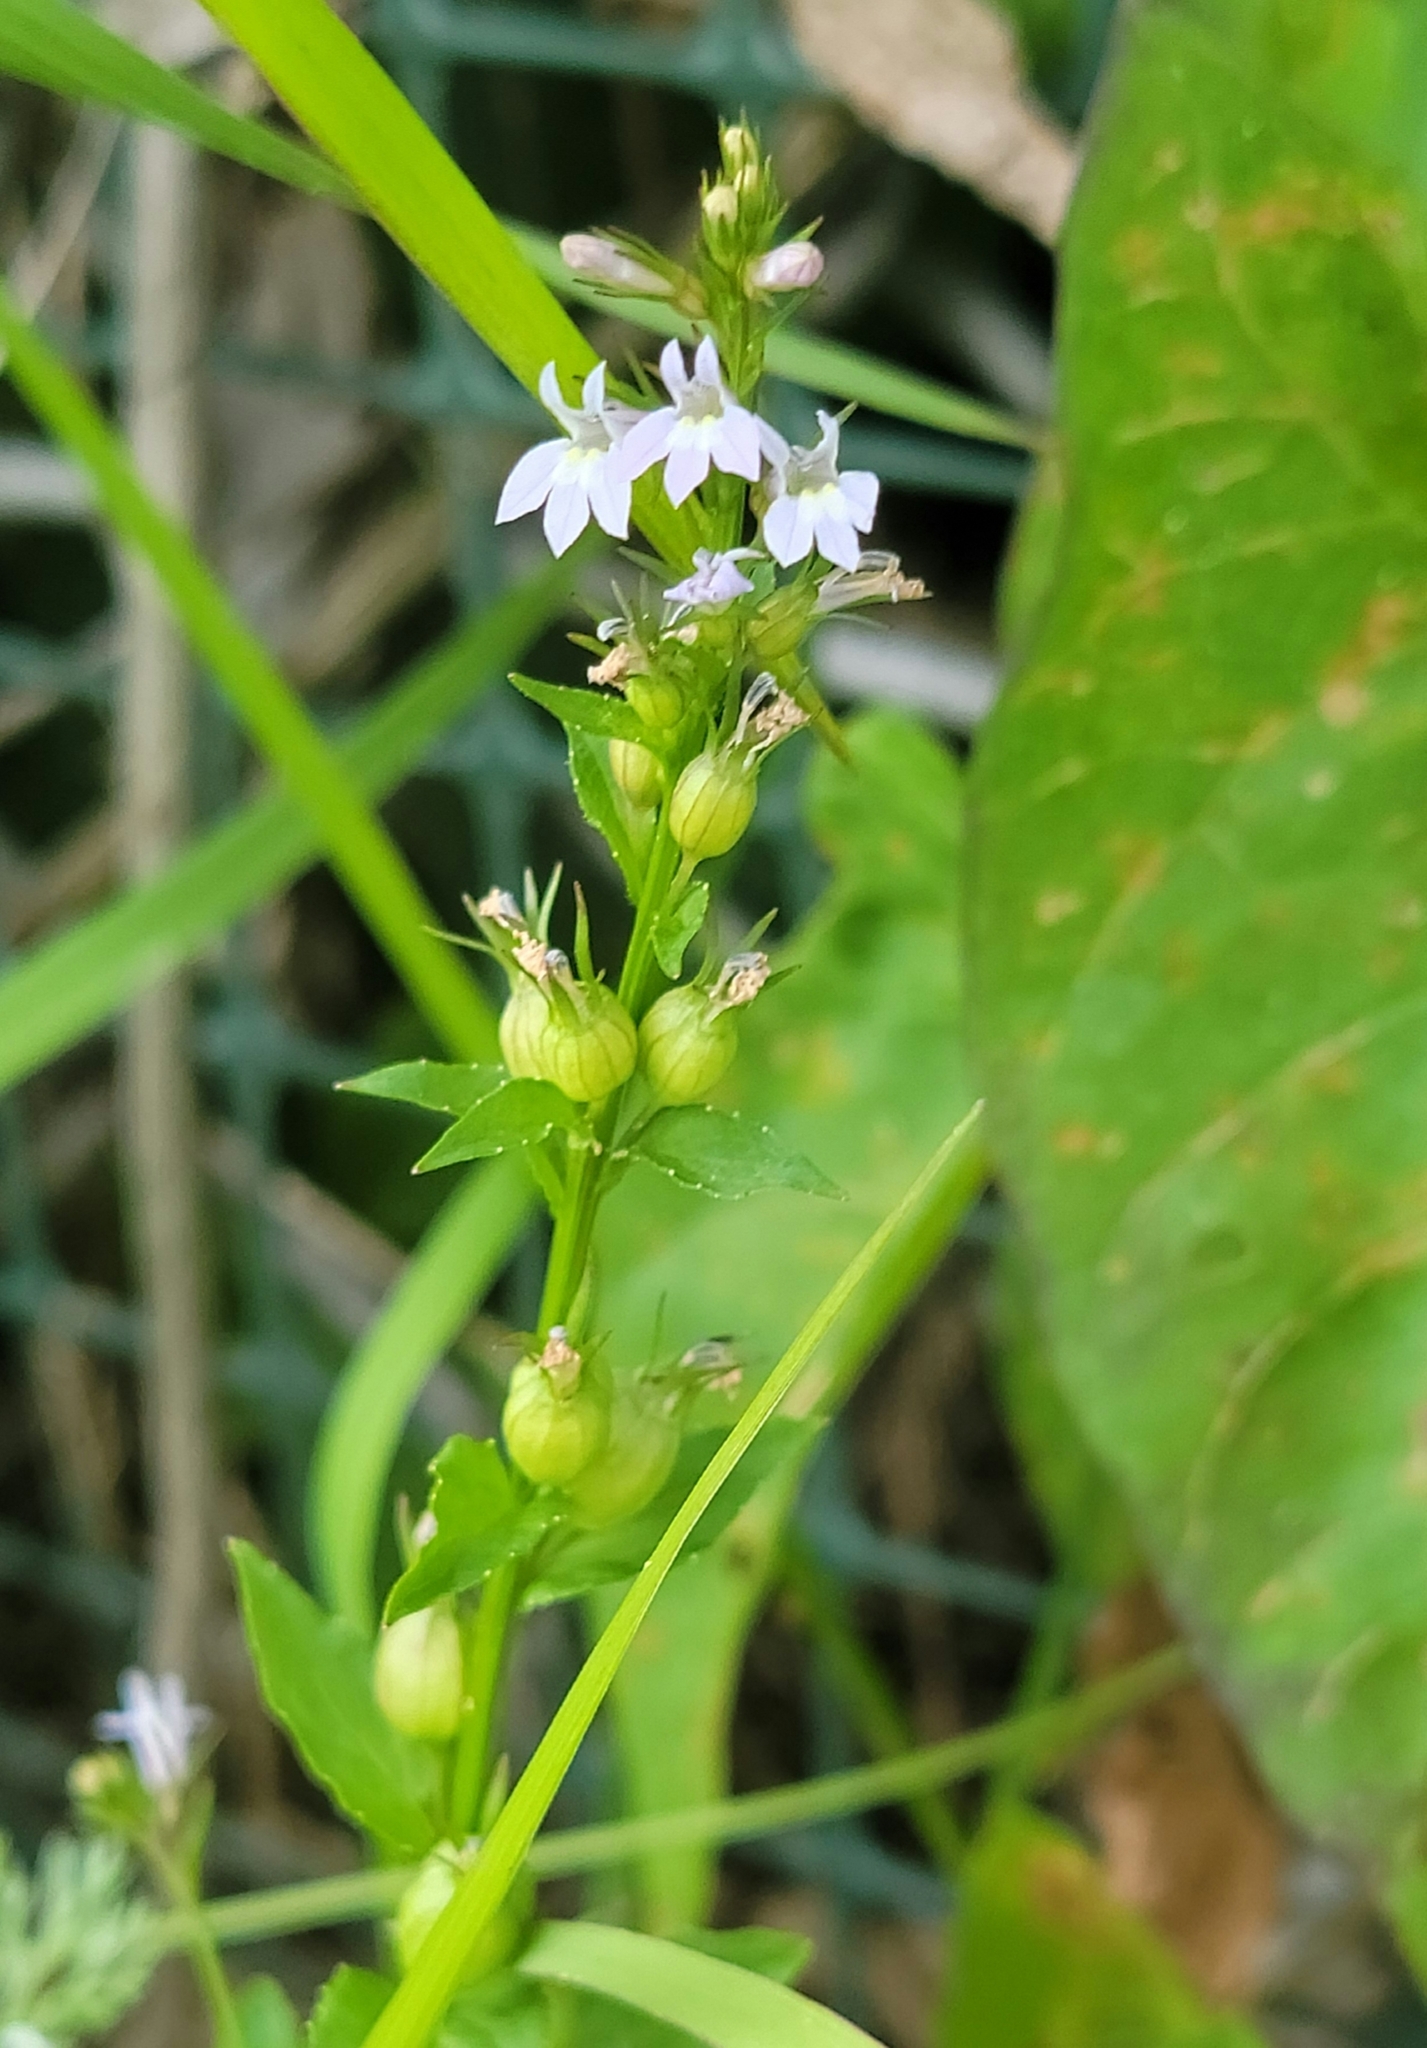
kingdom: Plantae
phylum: Tracheophyta
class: Magnoliopsida
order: Asterales
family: Campanulaceae
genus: Lobelia
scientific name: Lobelia inflata
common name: Indian tobacco
